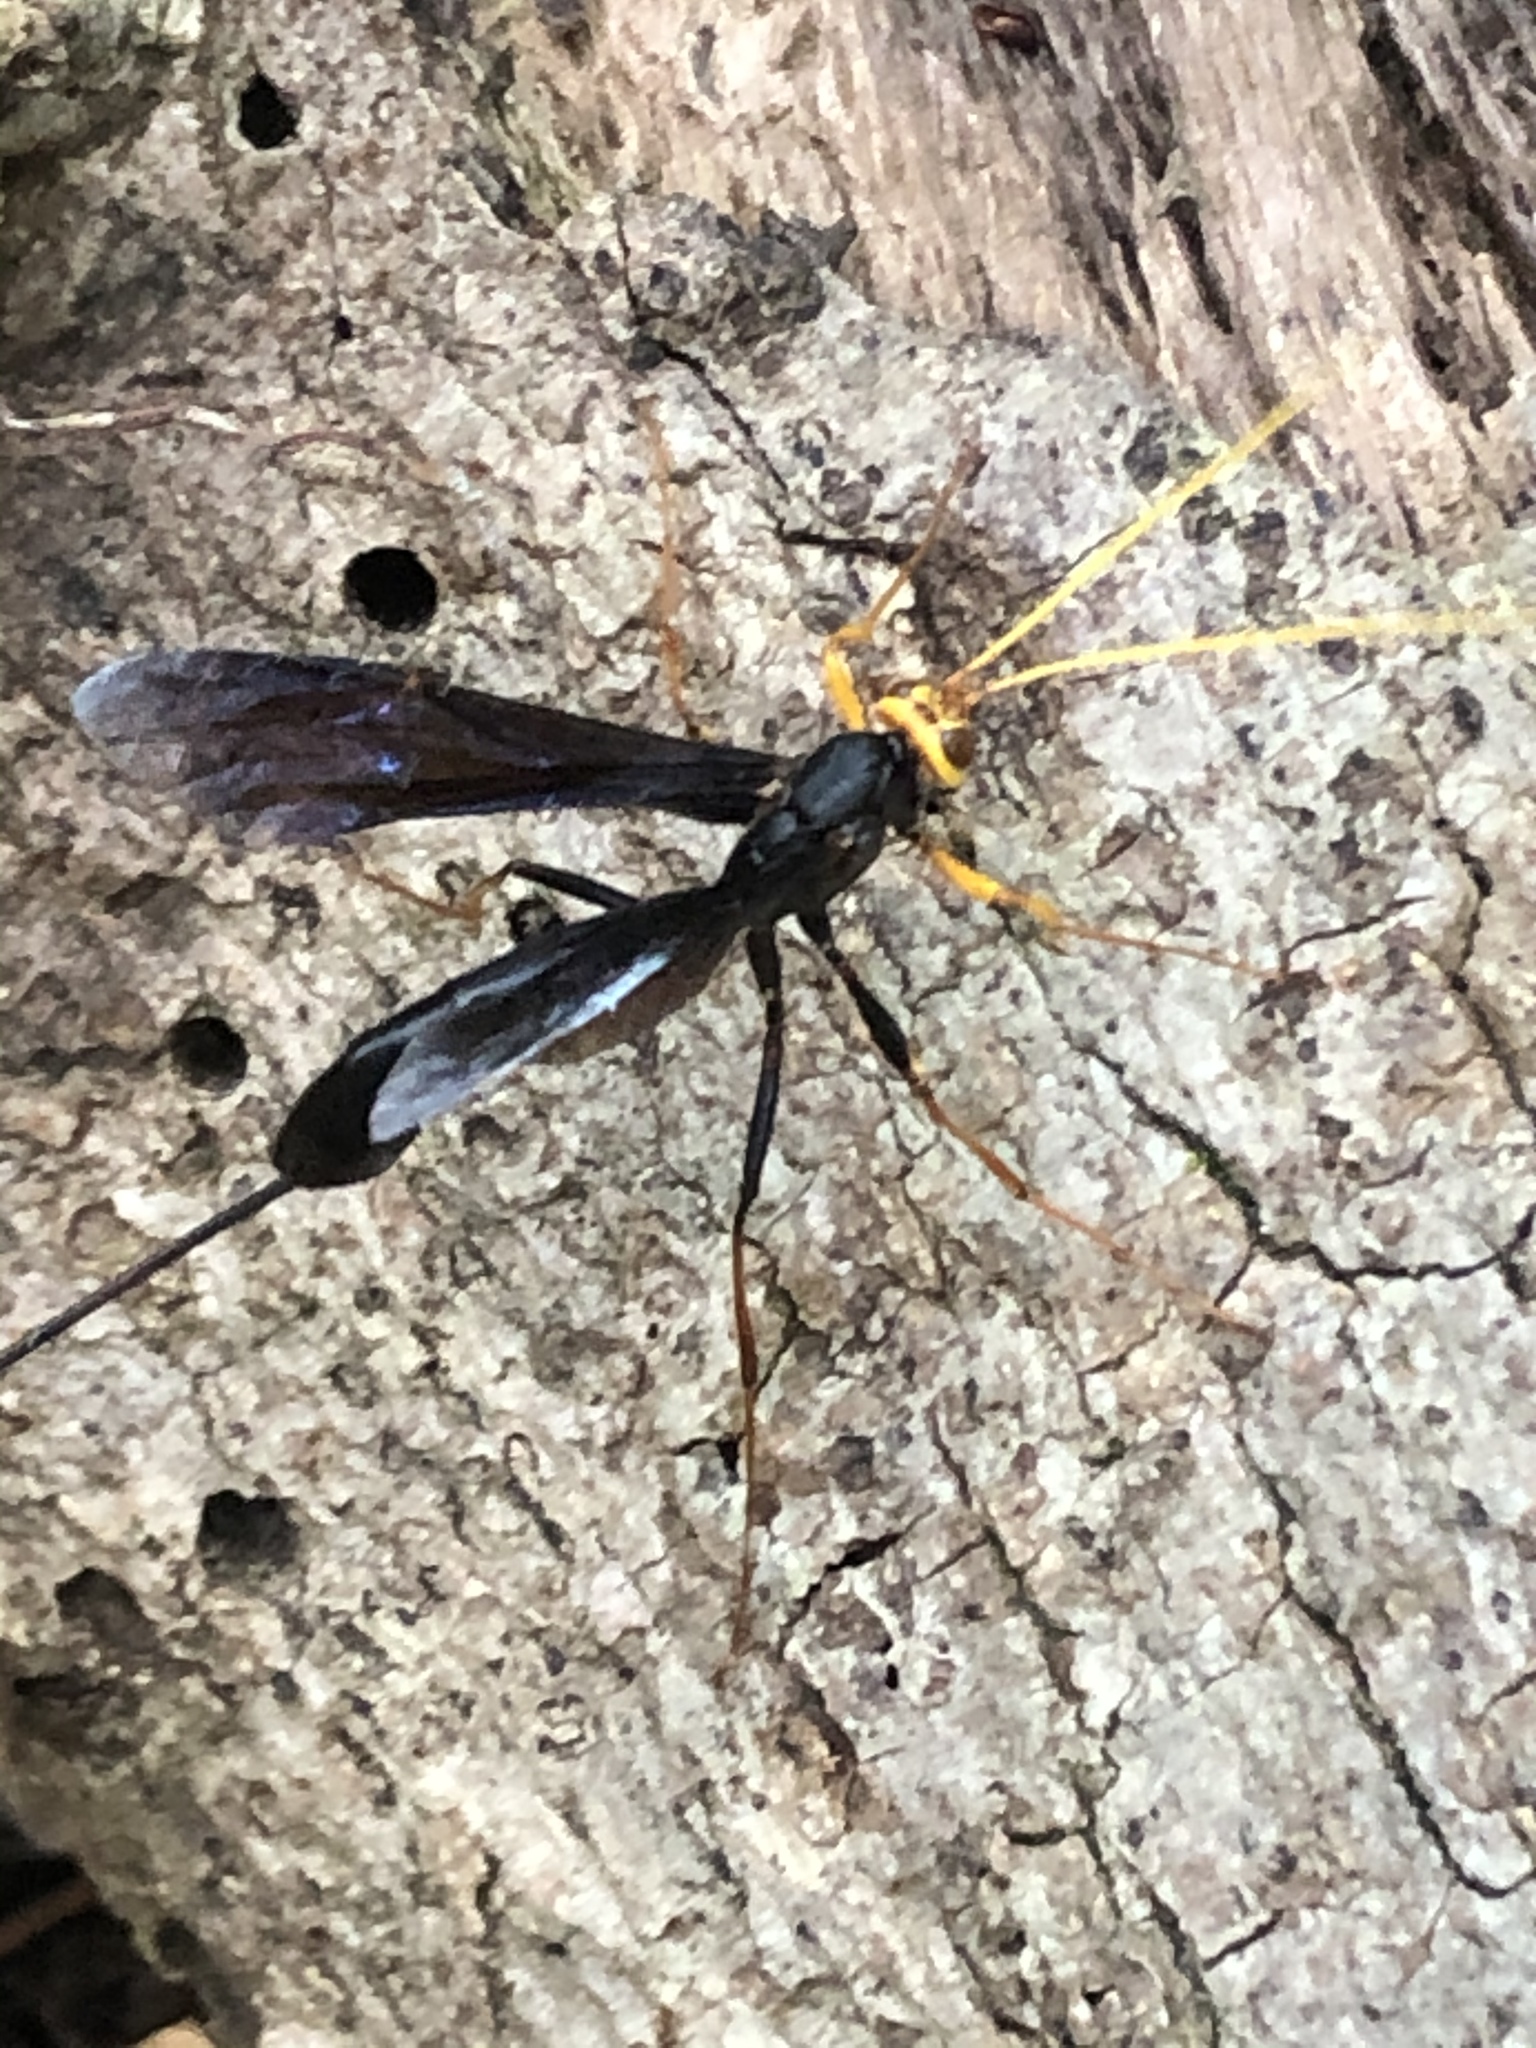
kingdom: Animalia
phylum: Arthropoda
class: Insecta
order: Hymenoptera
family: Ichneumonidae
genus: Megarhyssa
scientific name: Megarhyssa atrata
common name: Black giant ichneumonid wasp
